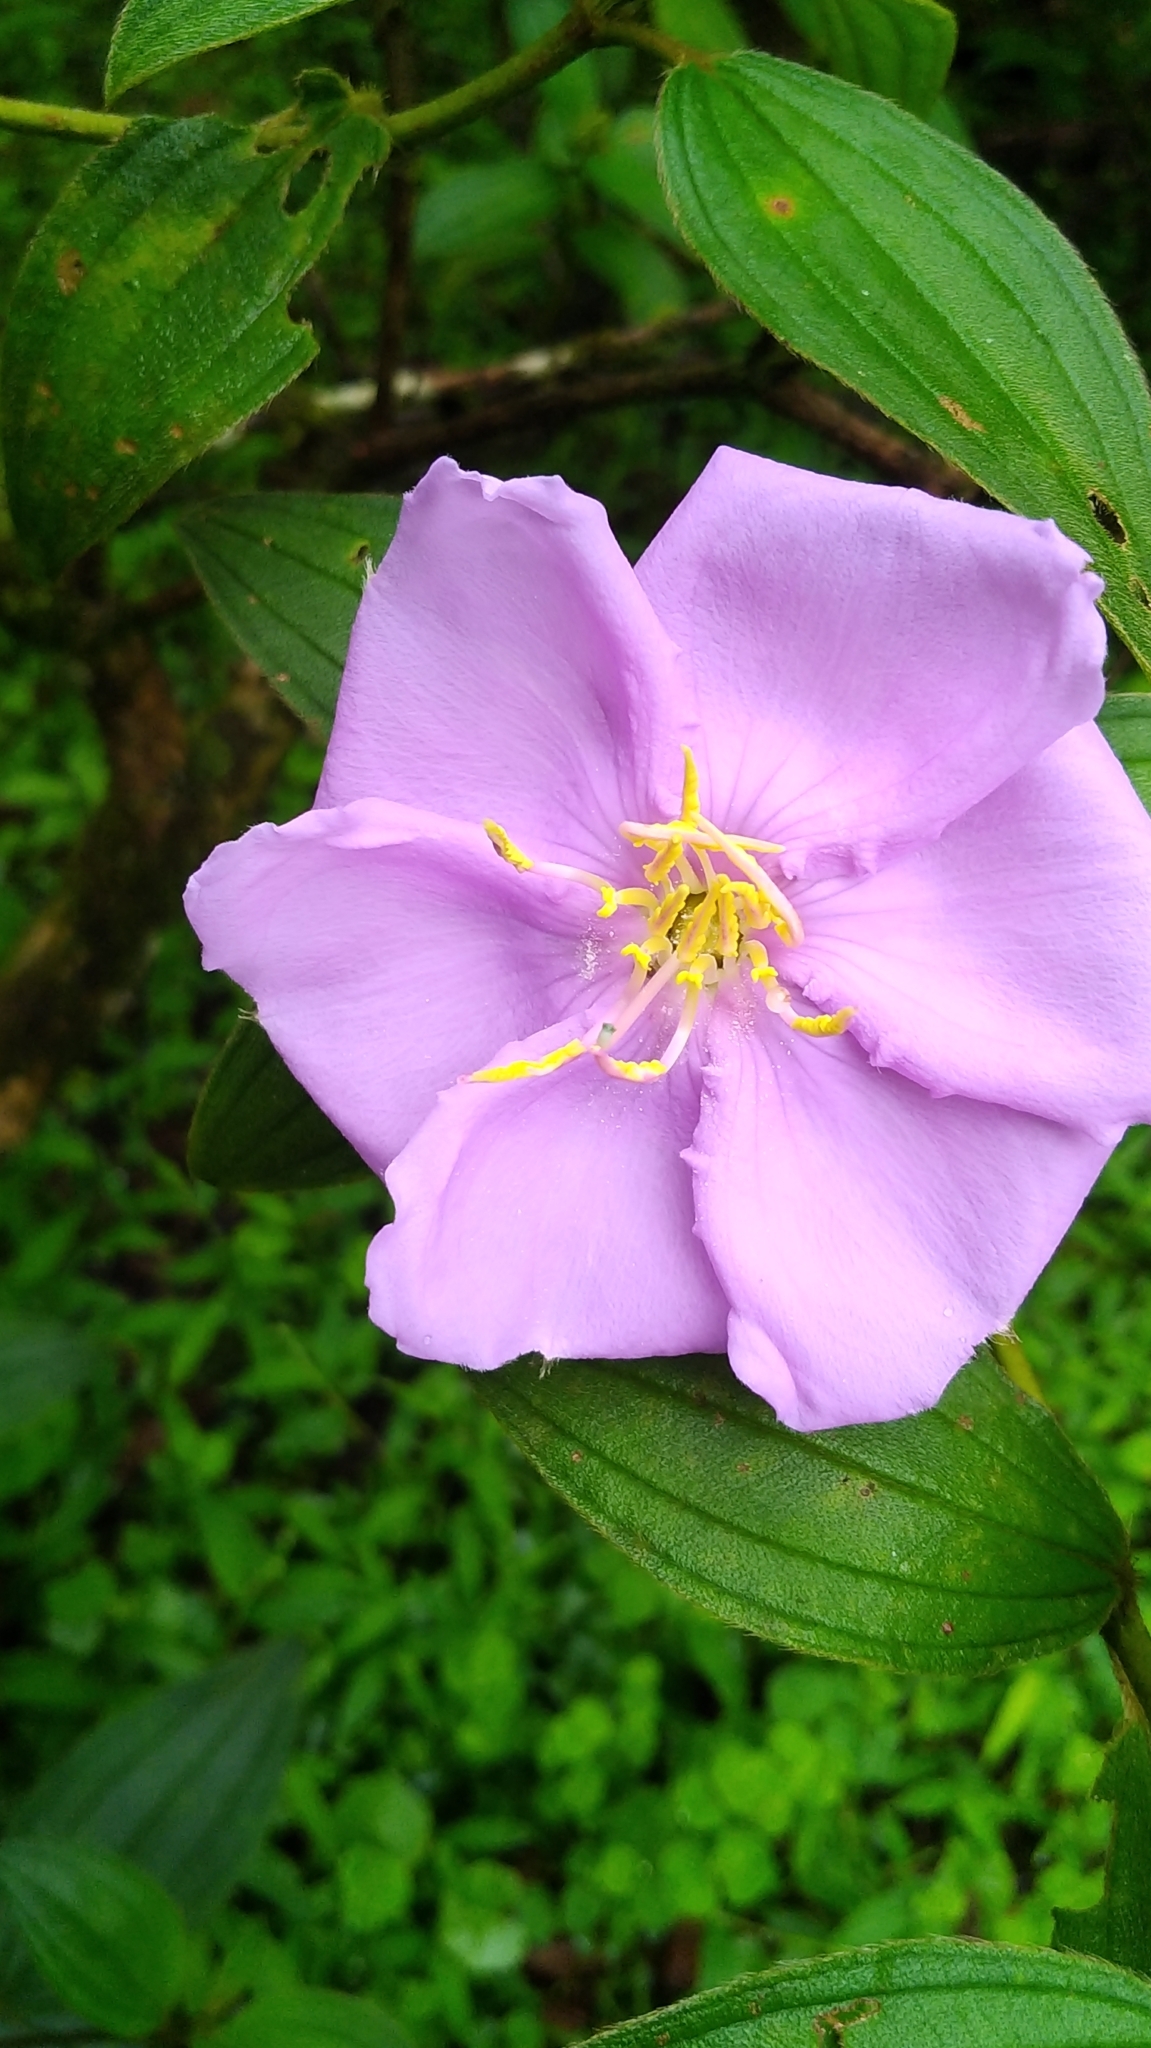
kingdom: Plantae
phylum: Tracheophyta
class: Magnoliopsida
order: Myrtales
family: Melastomataceae
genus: Melastoma
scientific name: Melastoma malabathricum
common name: Indian-rhododendron
